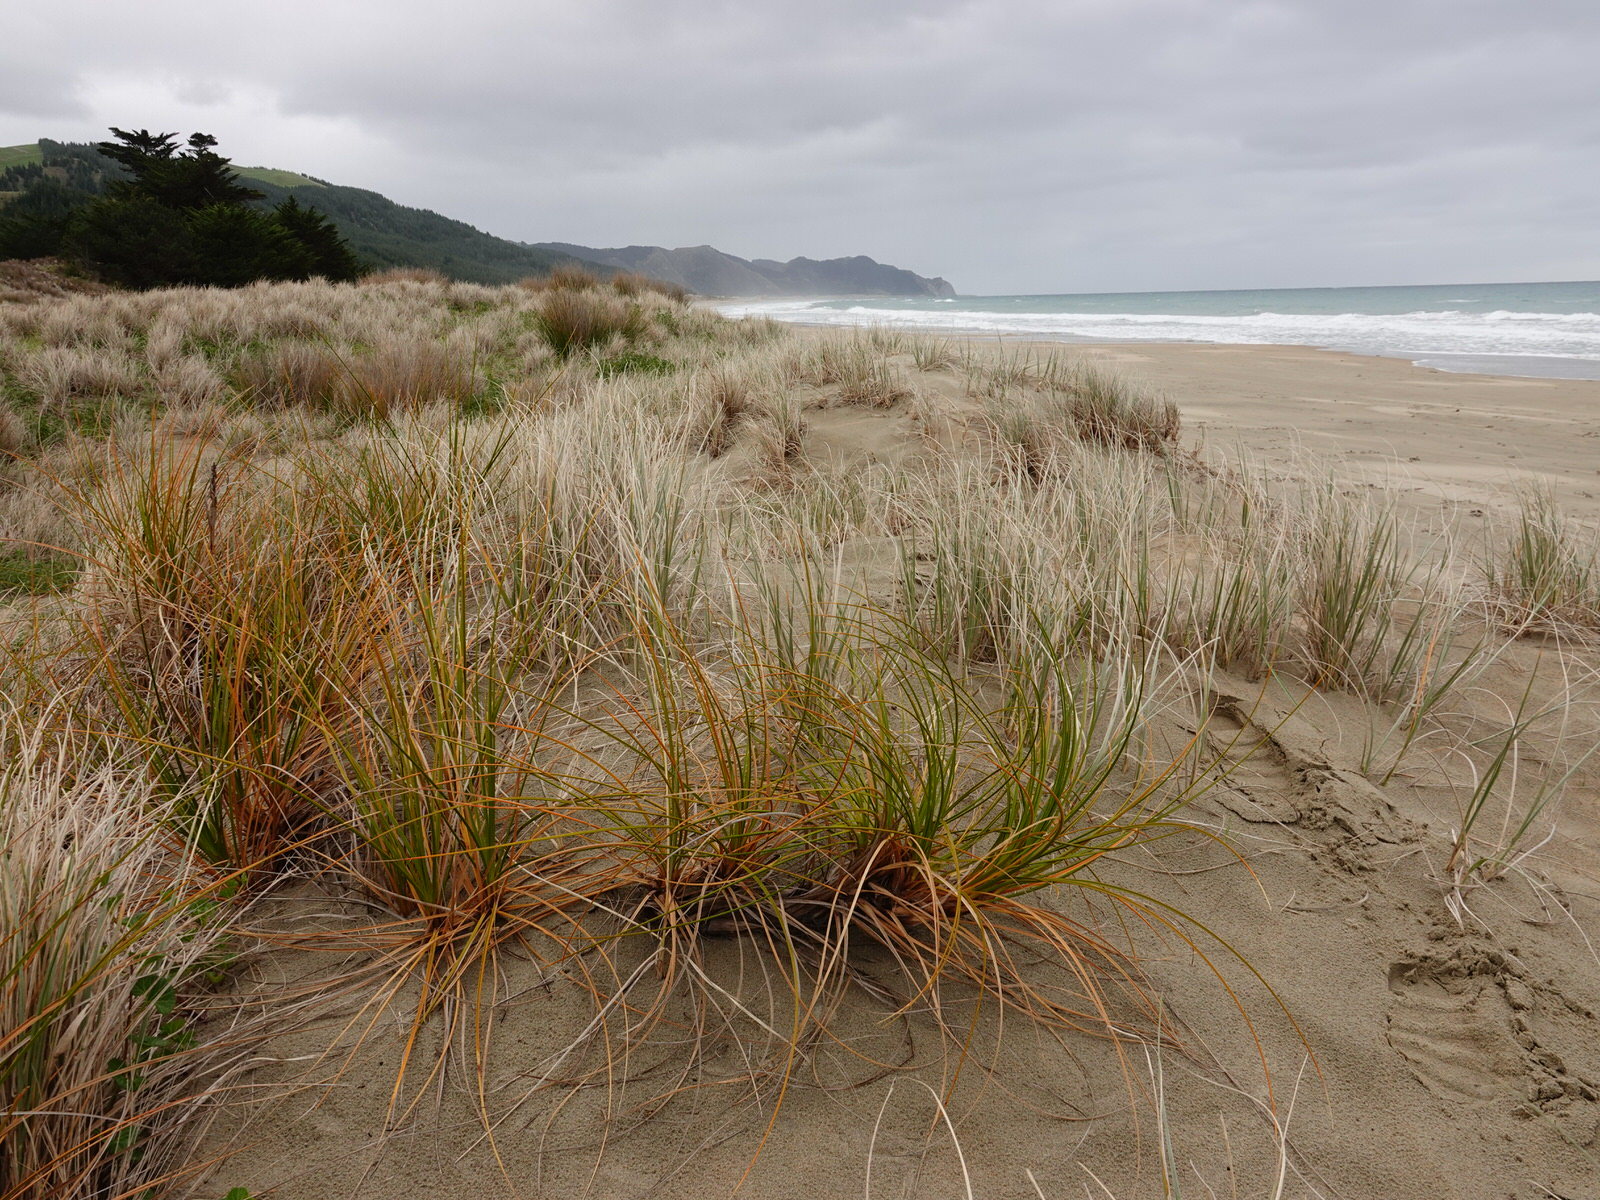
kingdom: Plantae
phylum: Tracheophyta
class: Liliopsida
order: Poales
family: Cyperaceae
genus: Ficinia
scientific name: Ficinia spiralis
